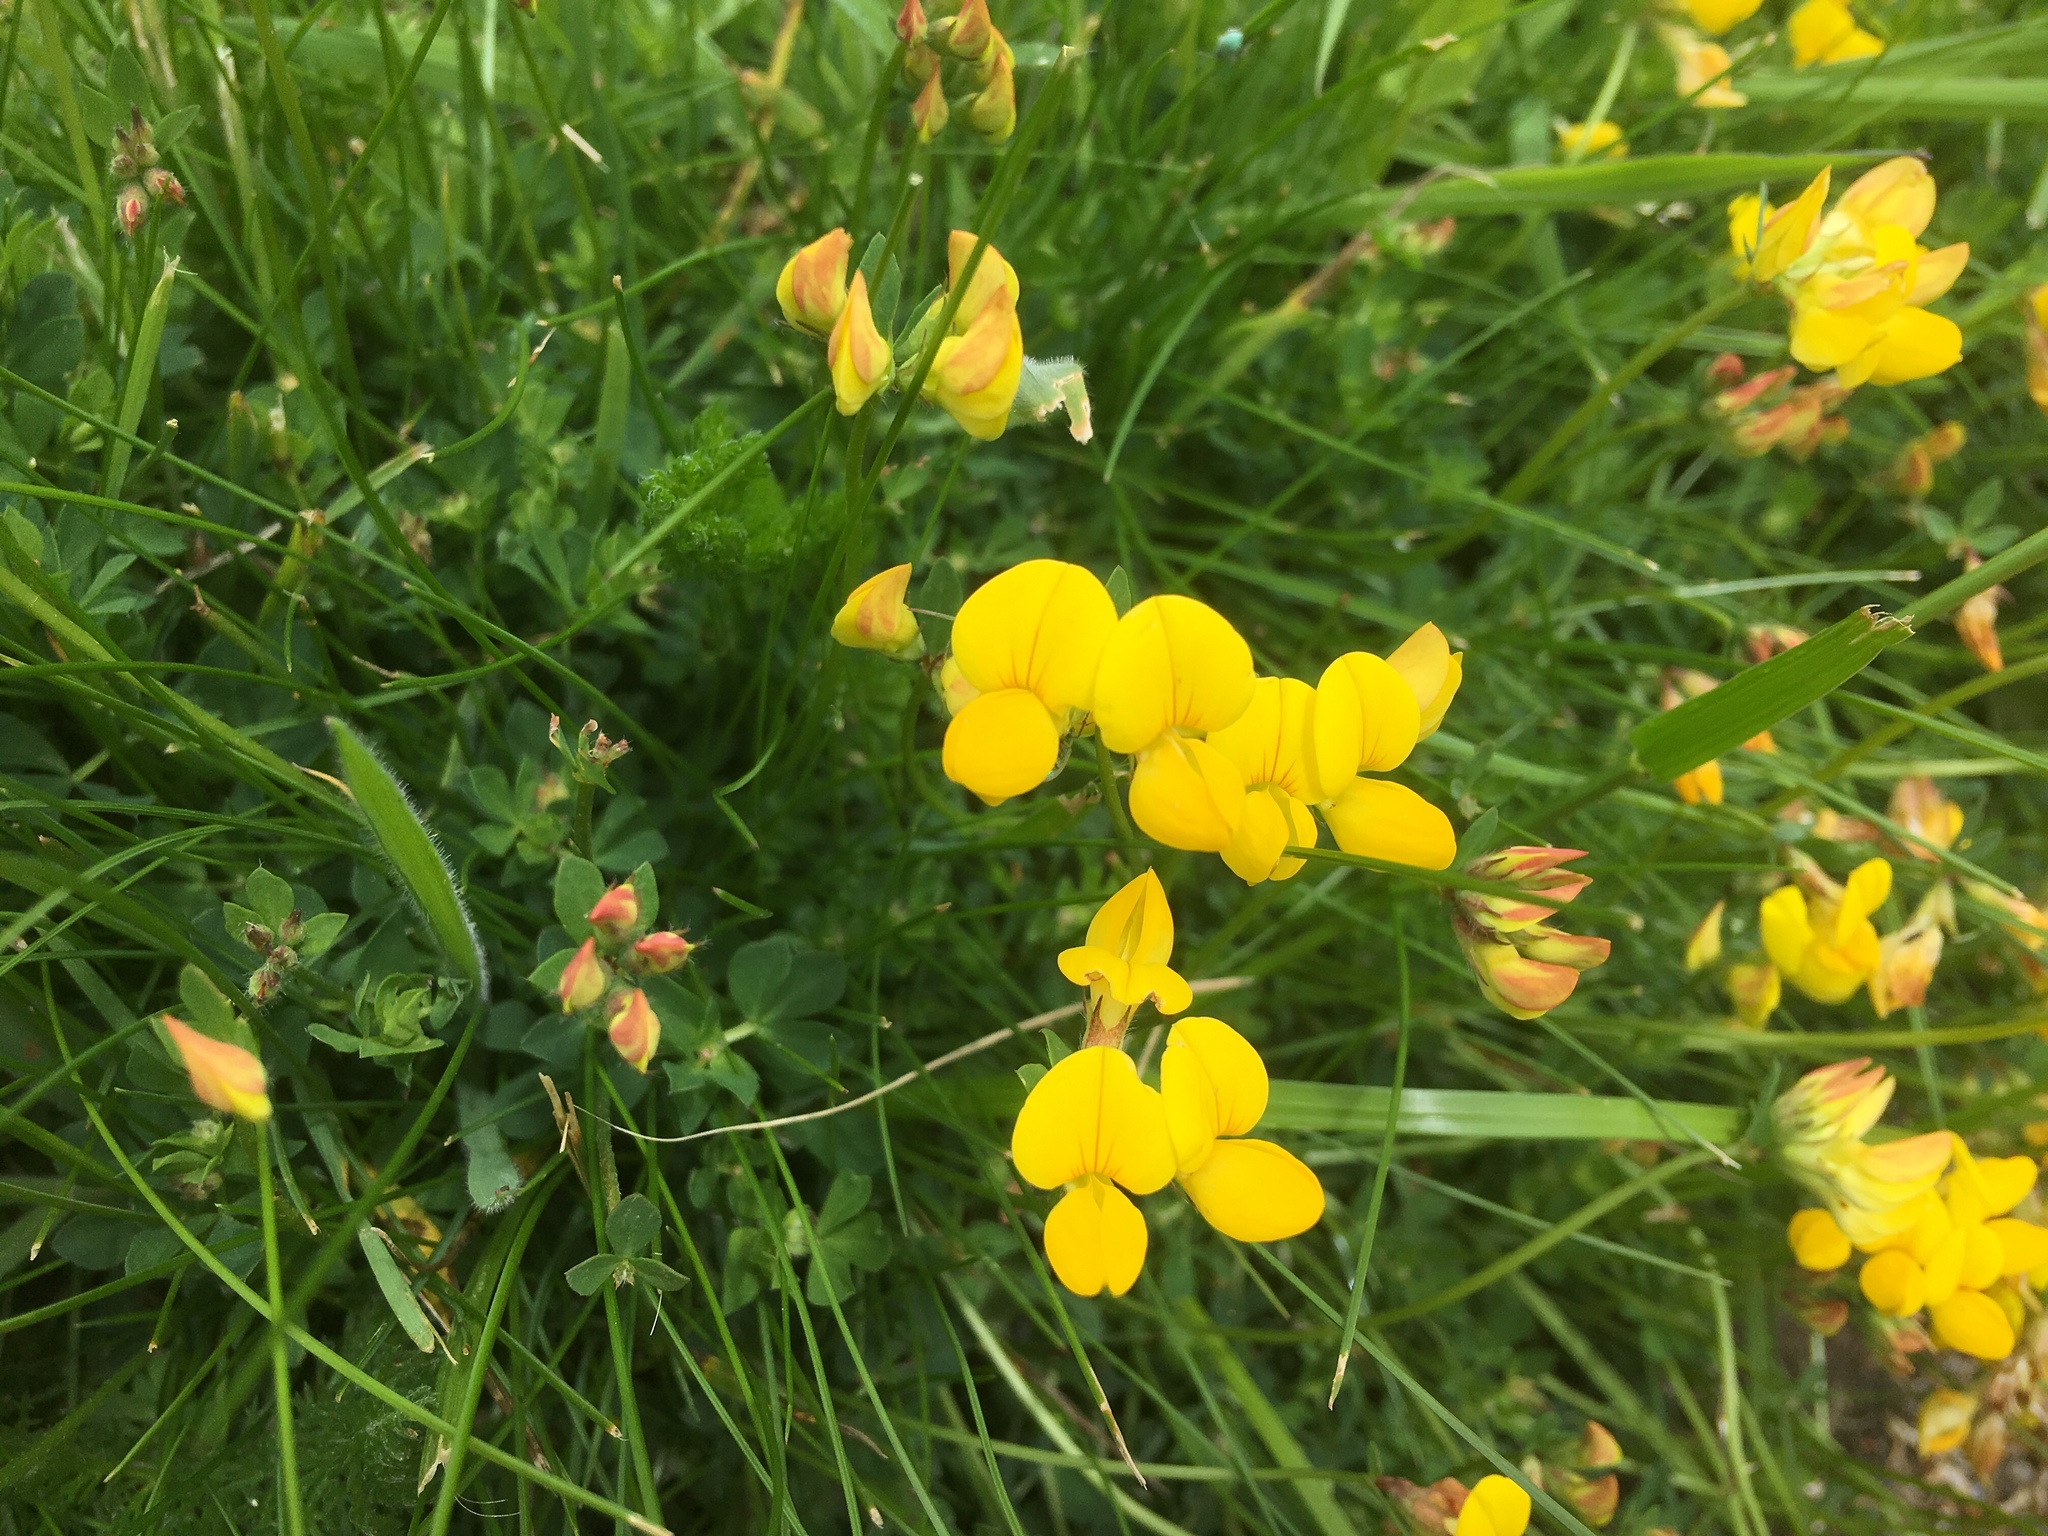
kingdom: Plantae
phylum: Tracheophyta
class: Magnoliopsida
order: Fabales
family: Fabaceae
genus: Lotus
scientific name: Lotus corniculatus
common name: Common bird's-foot-trefoil
